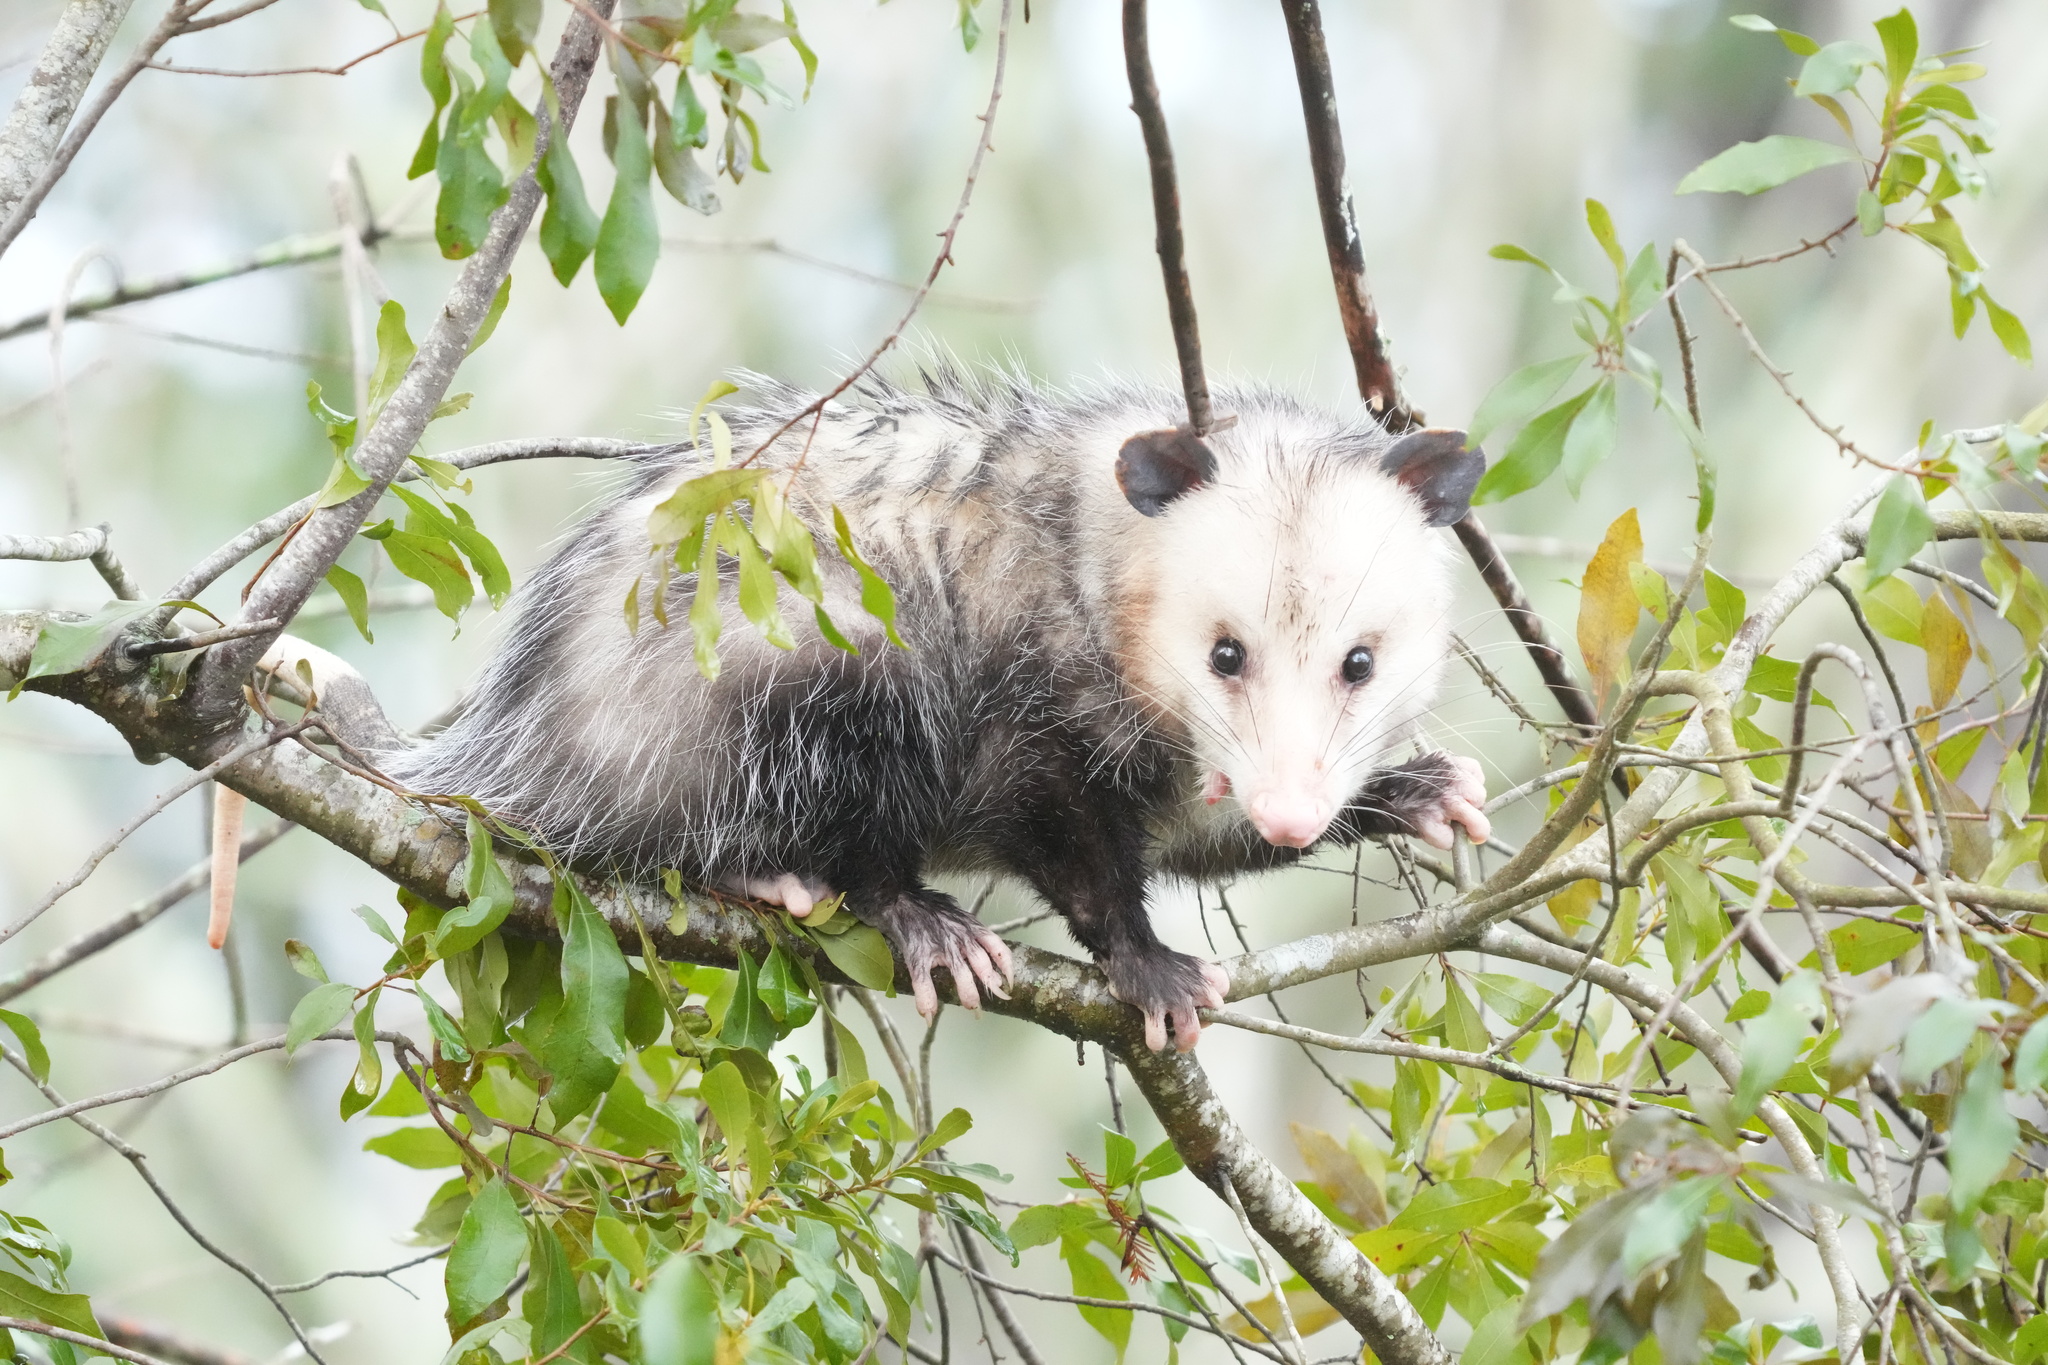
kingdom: Animalia
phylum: Chordata
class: Mammalia
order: Didelphimorphia
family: Didelphidae
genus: Didelphis
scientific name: Didelphis virginiana
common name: Virginia opossum
